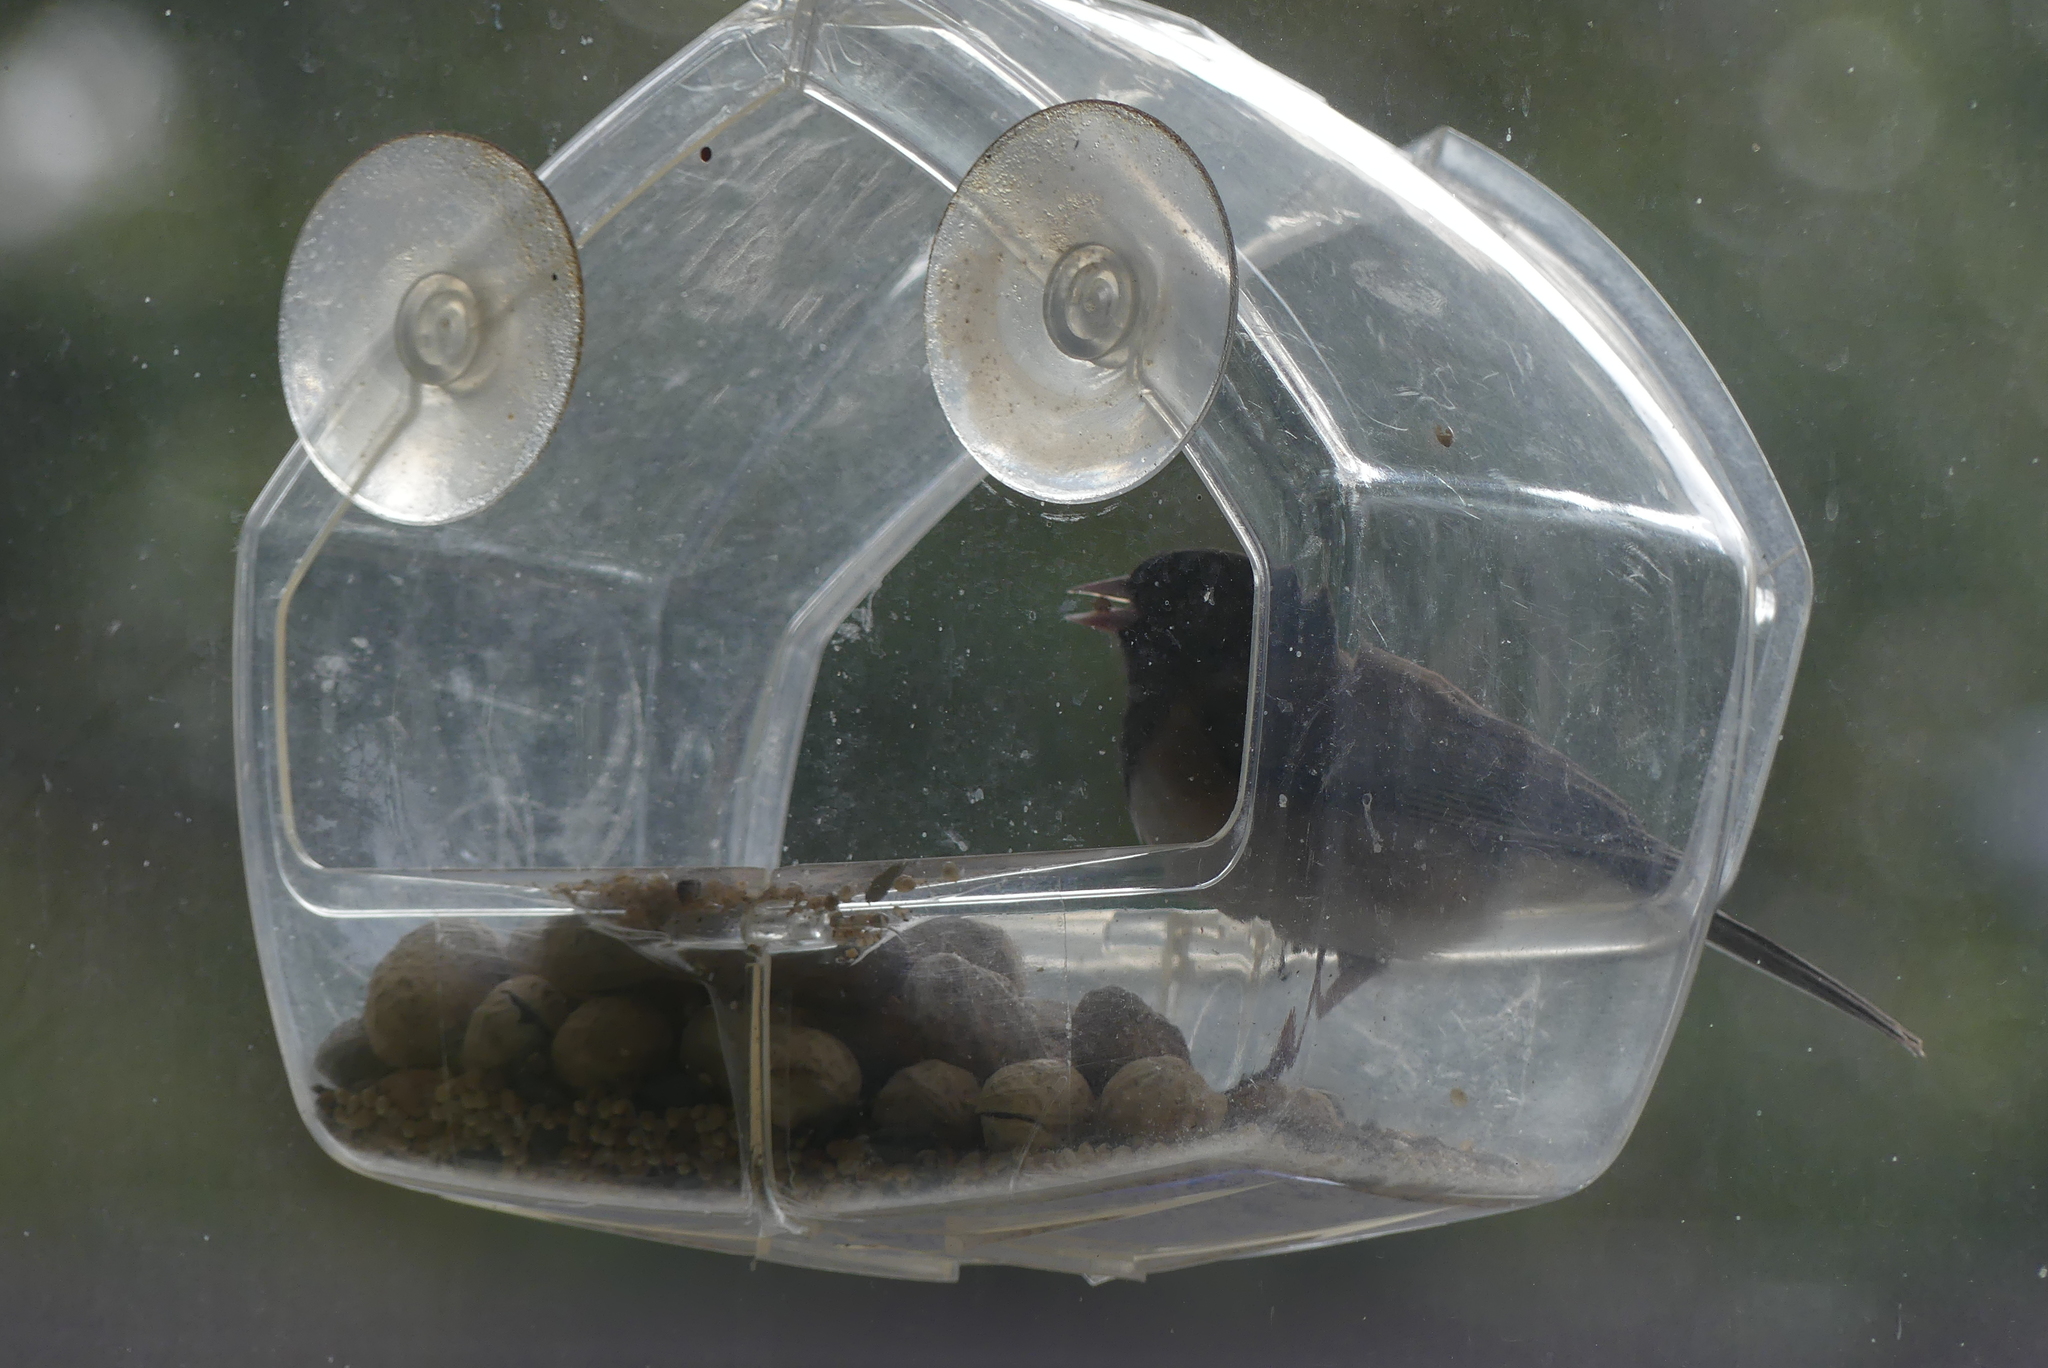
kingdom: Animalia
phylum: Chordata
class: Aves
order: Passeriformes
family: Passerellidae
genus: Junco
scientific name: Junco hyemalis
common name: Dark-eyed junco
